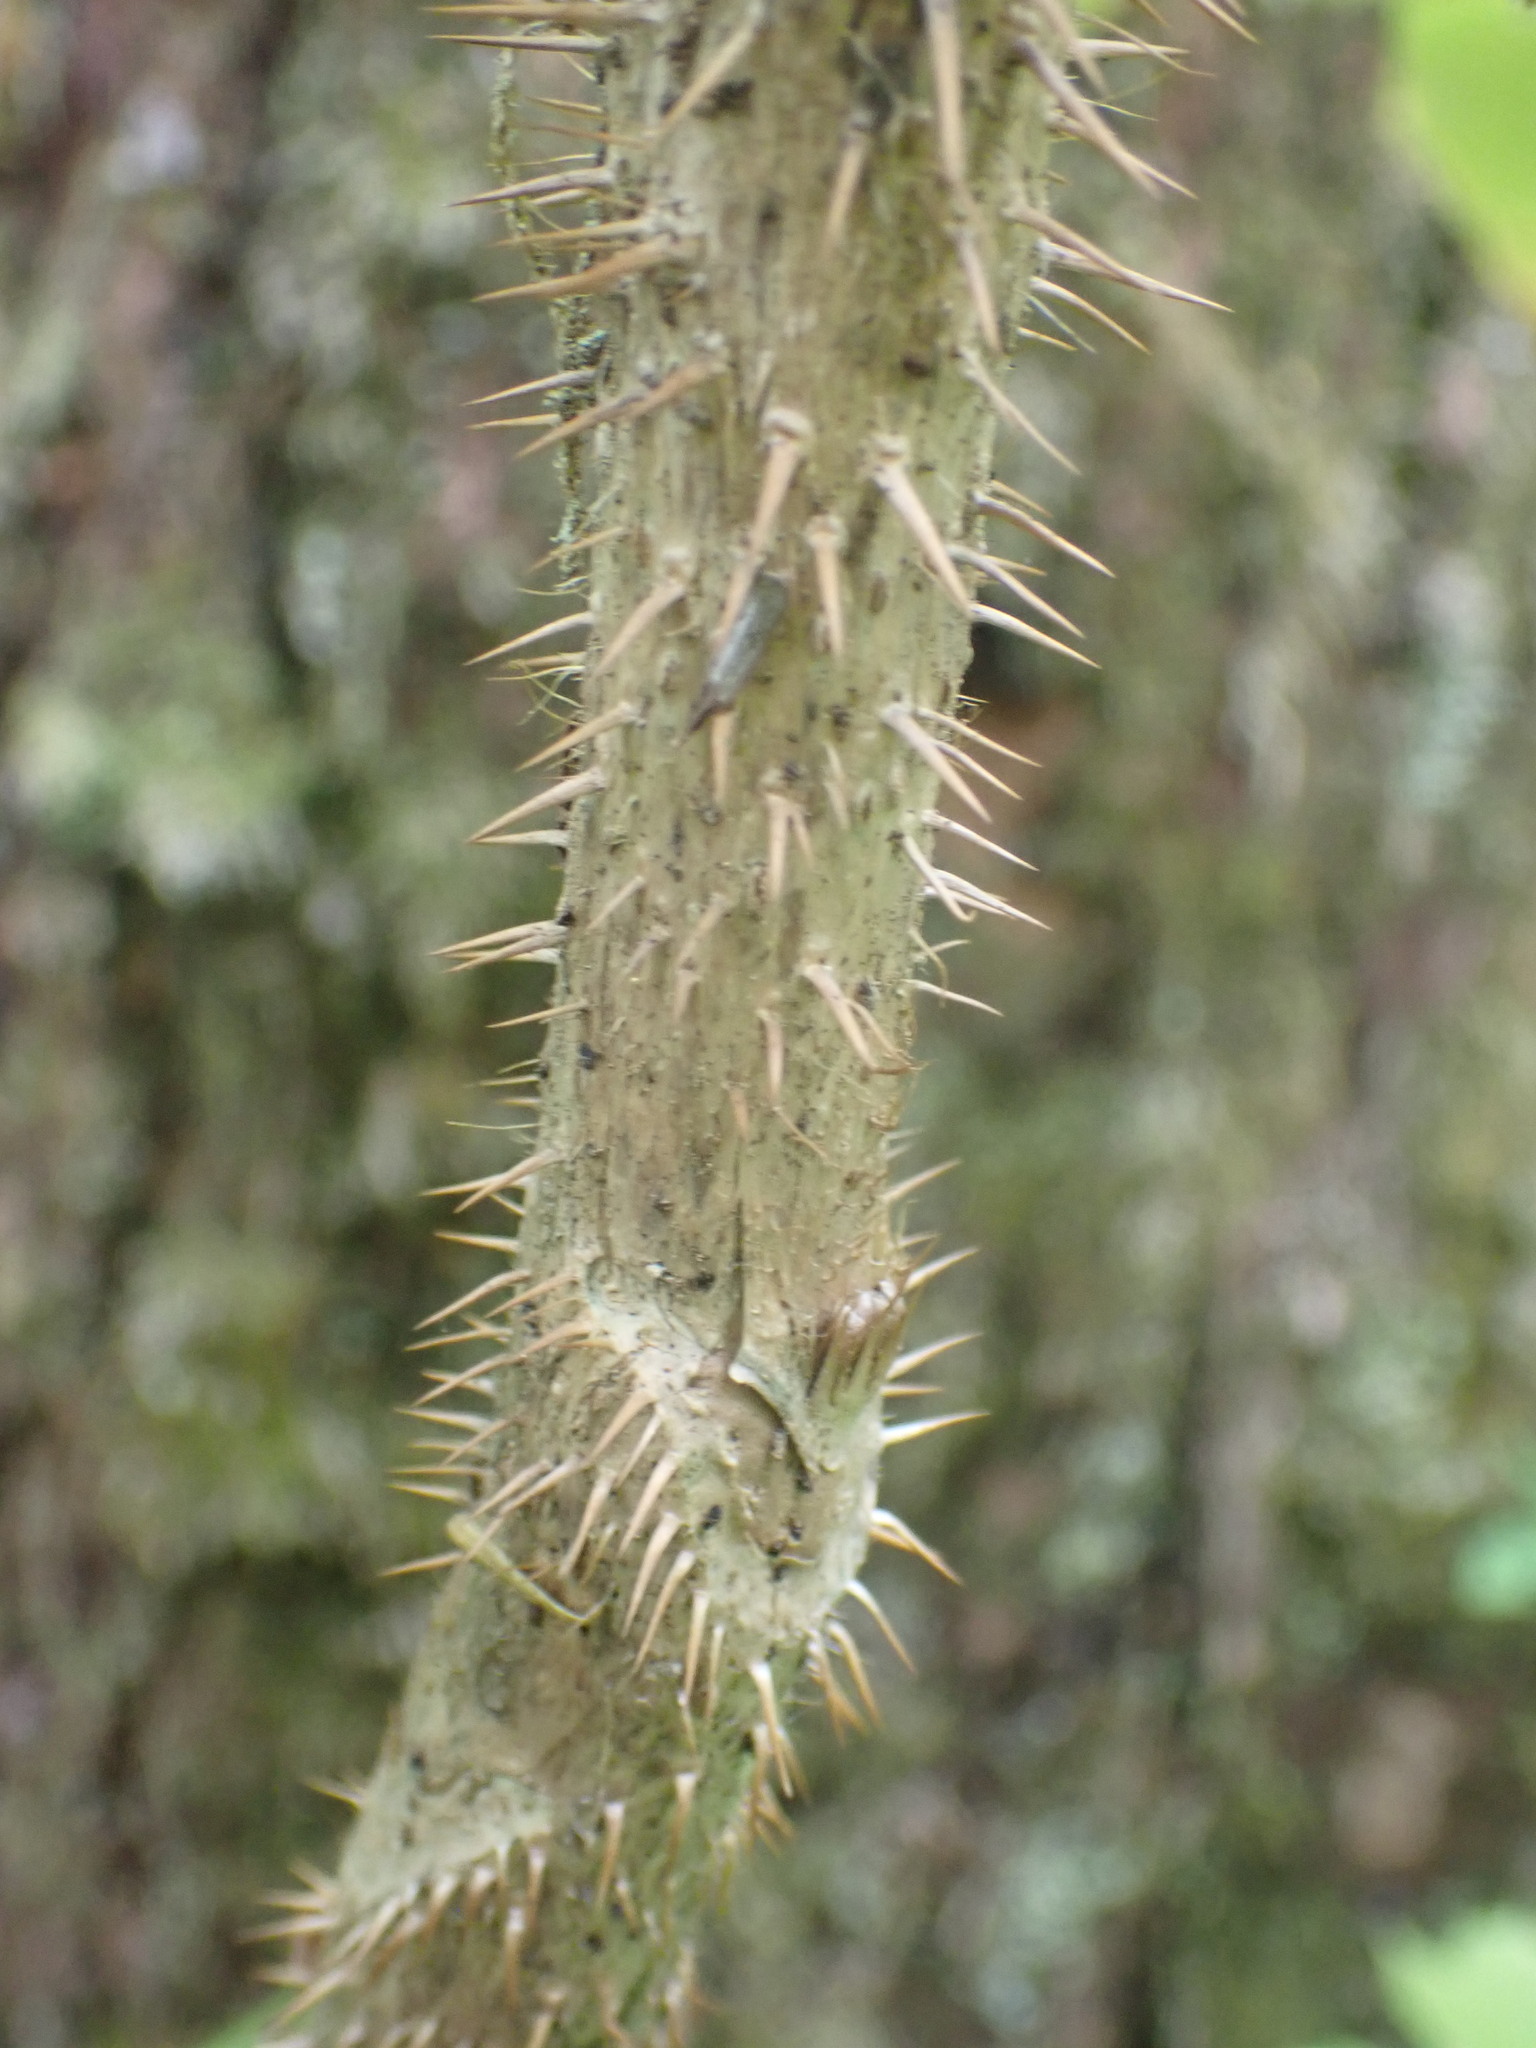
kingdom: Plantae
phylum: Tracheophyta
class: Magnoliopsida
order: Apiales
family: Araliaceae
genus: Oplopanax
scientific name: Oplopanax horridus
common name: Devil's walking-stick
